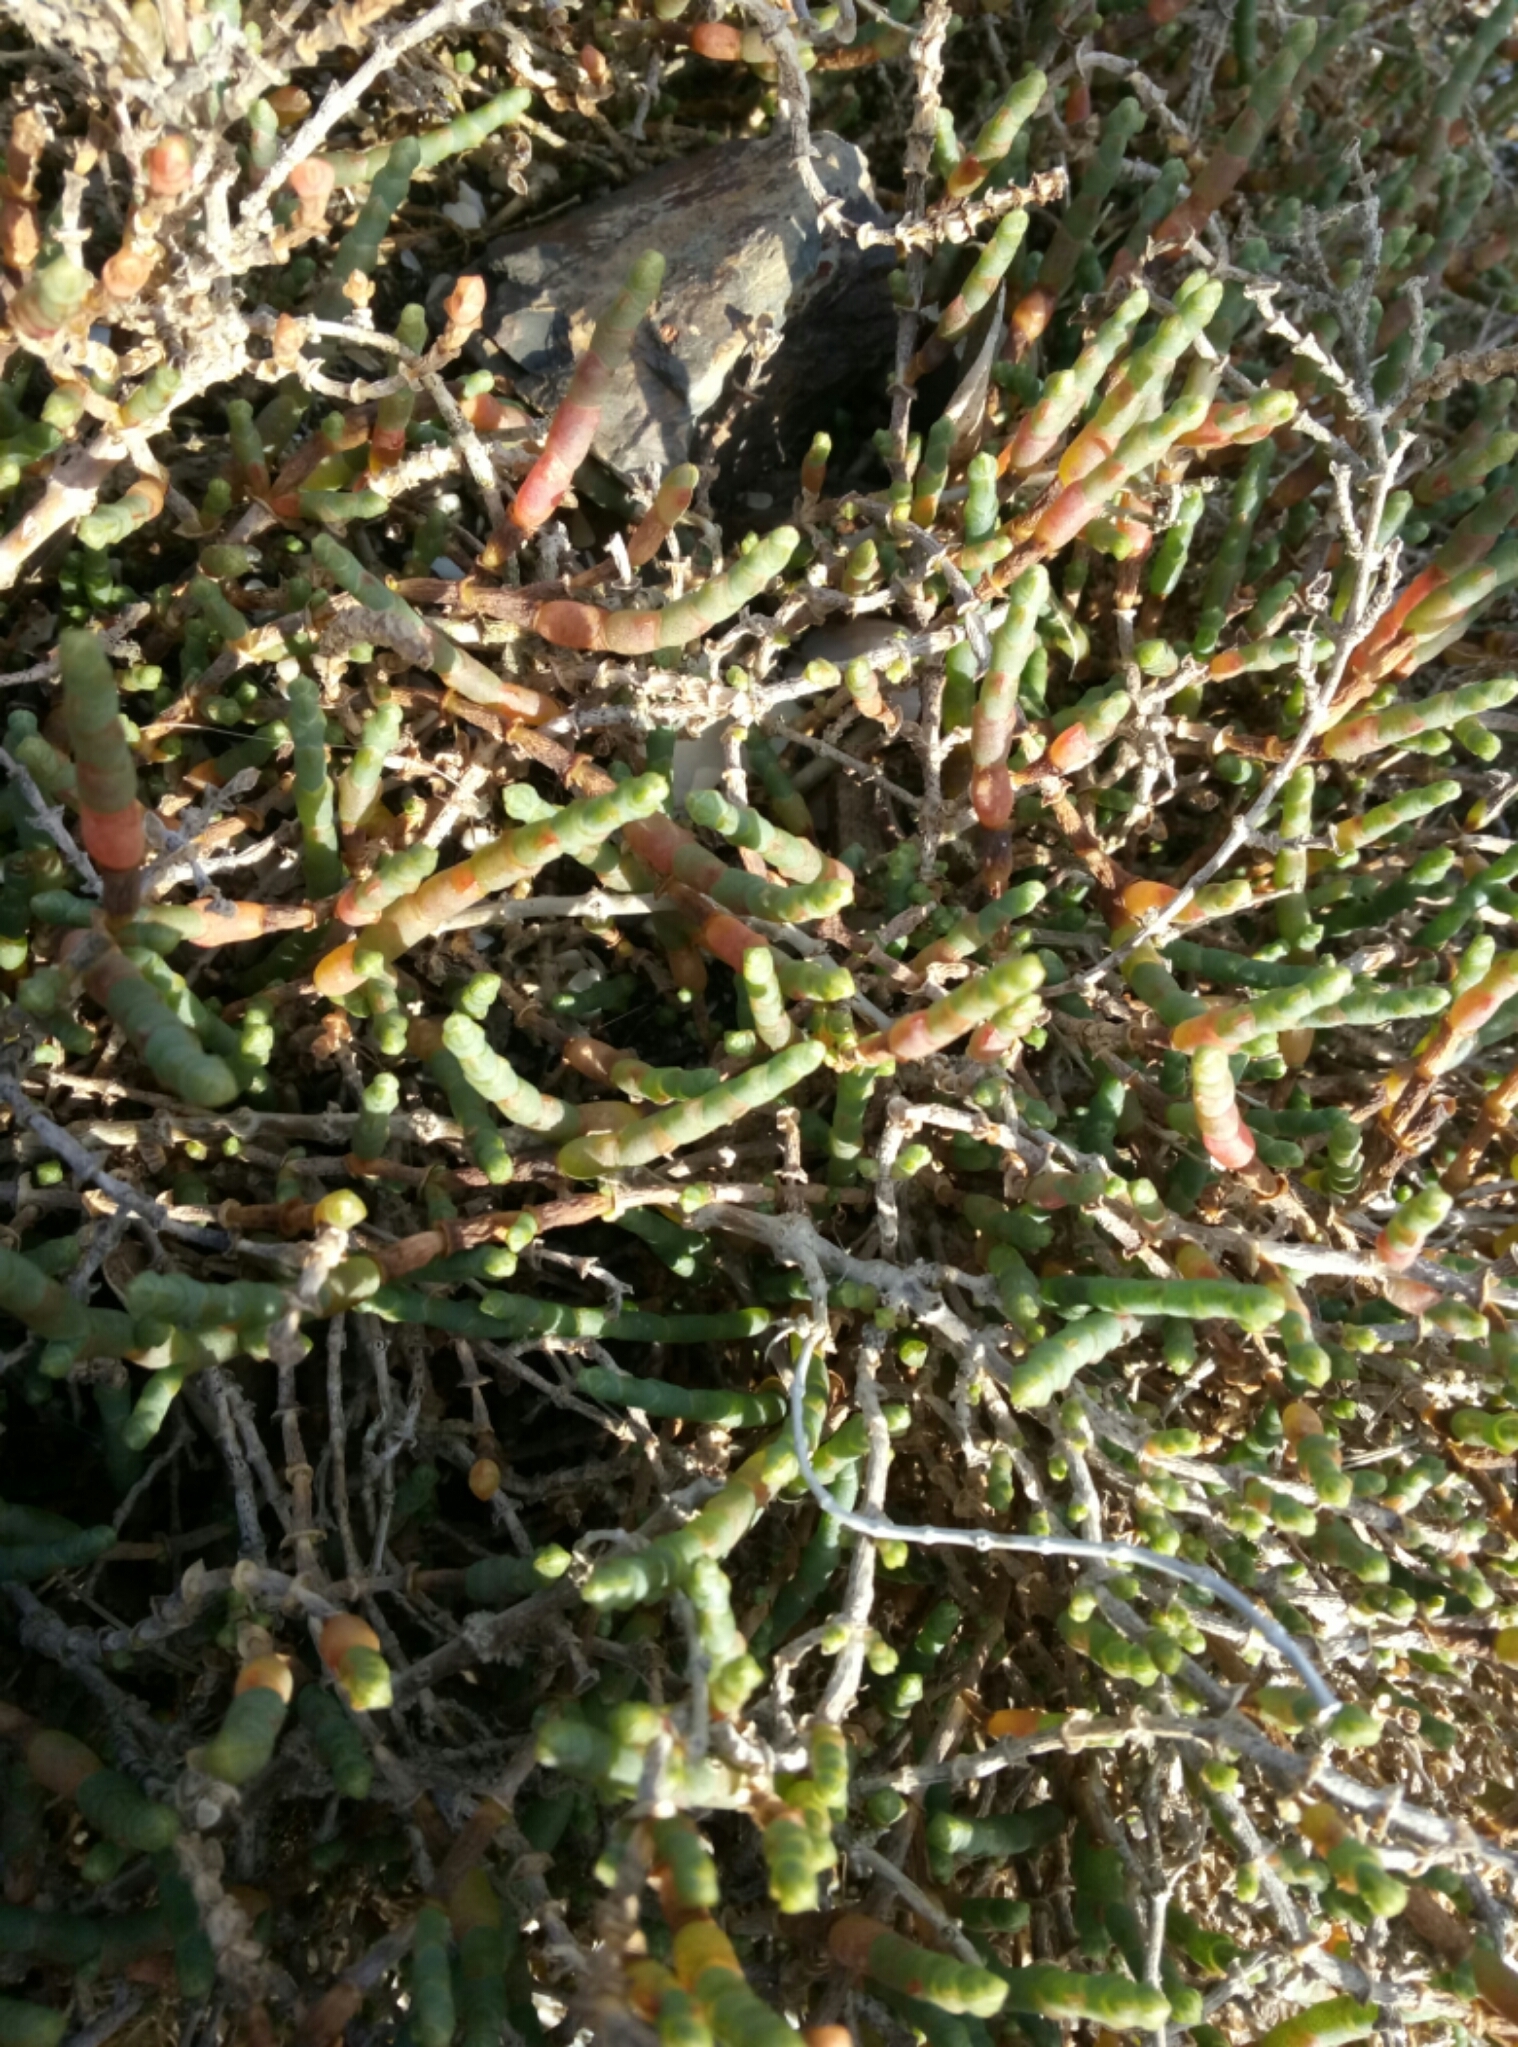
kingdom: Plantae
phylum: Tracheophyta
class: Magnoliopsida
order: Caryophyllales
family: Amaranthaceae
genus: Salicornia
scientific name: Salicornia quinqueflora
